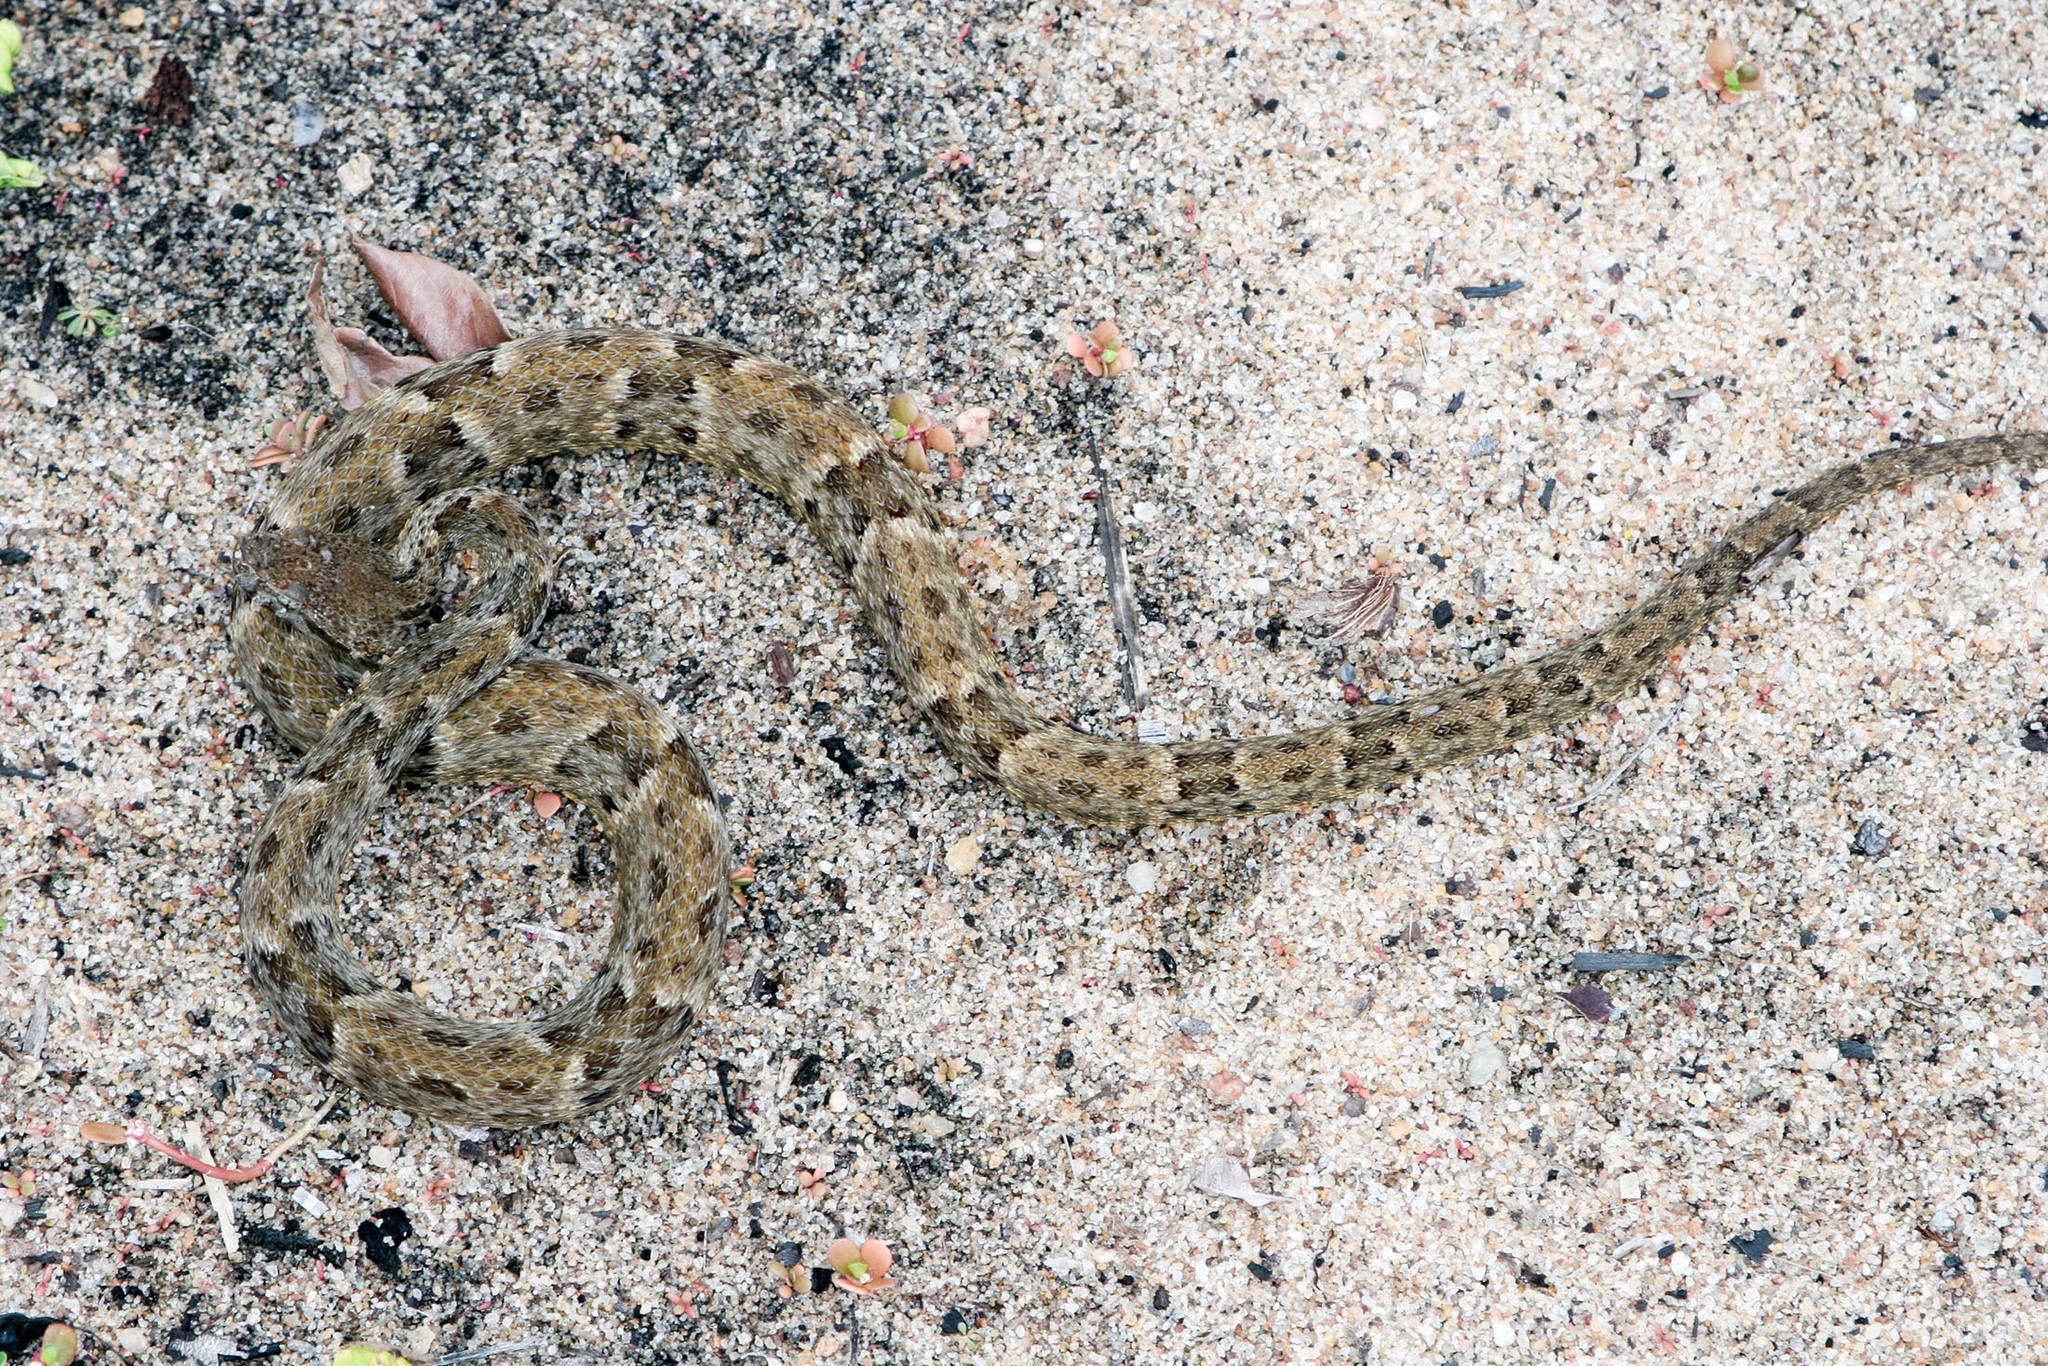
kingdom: Animalia
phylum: Chordata
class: Squamata
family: Viperidae
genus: Bothrops
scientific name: Bothrops atrox
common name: Common lancehead
